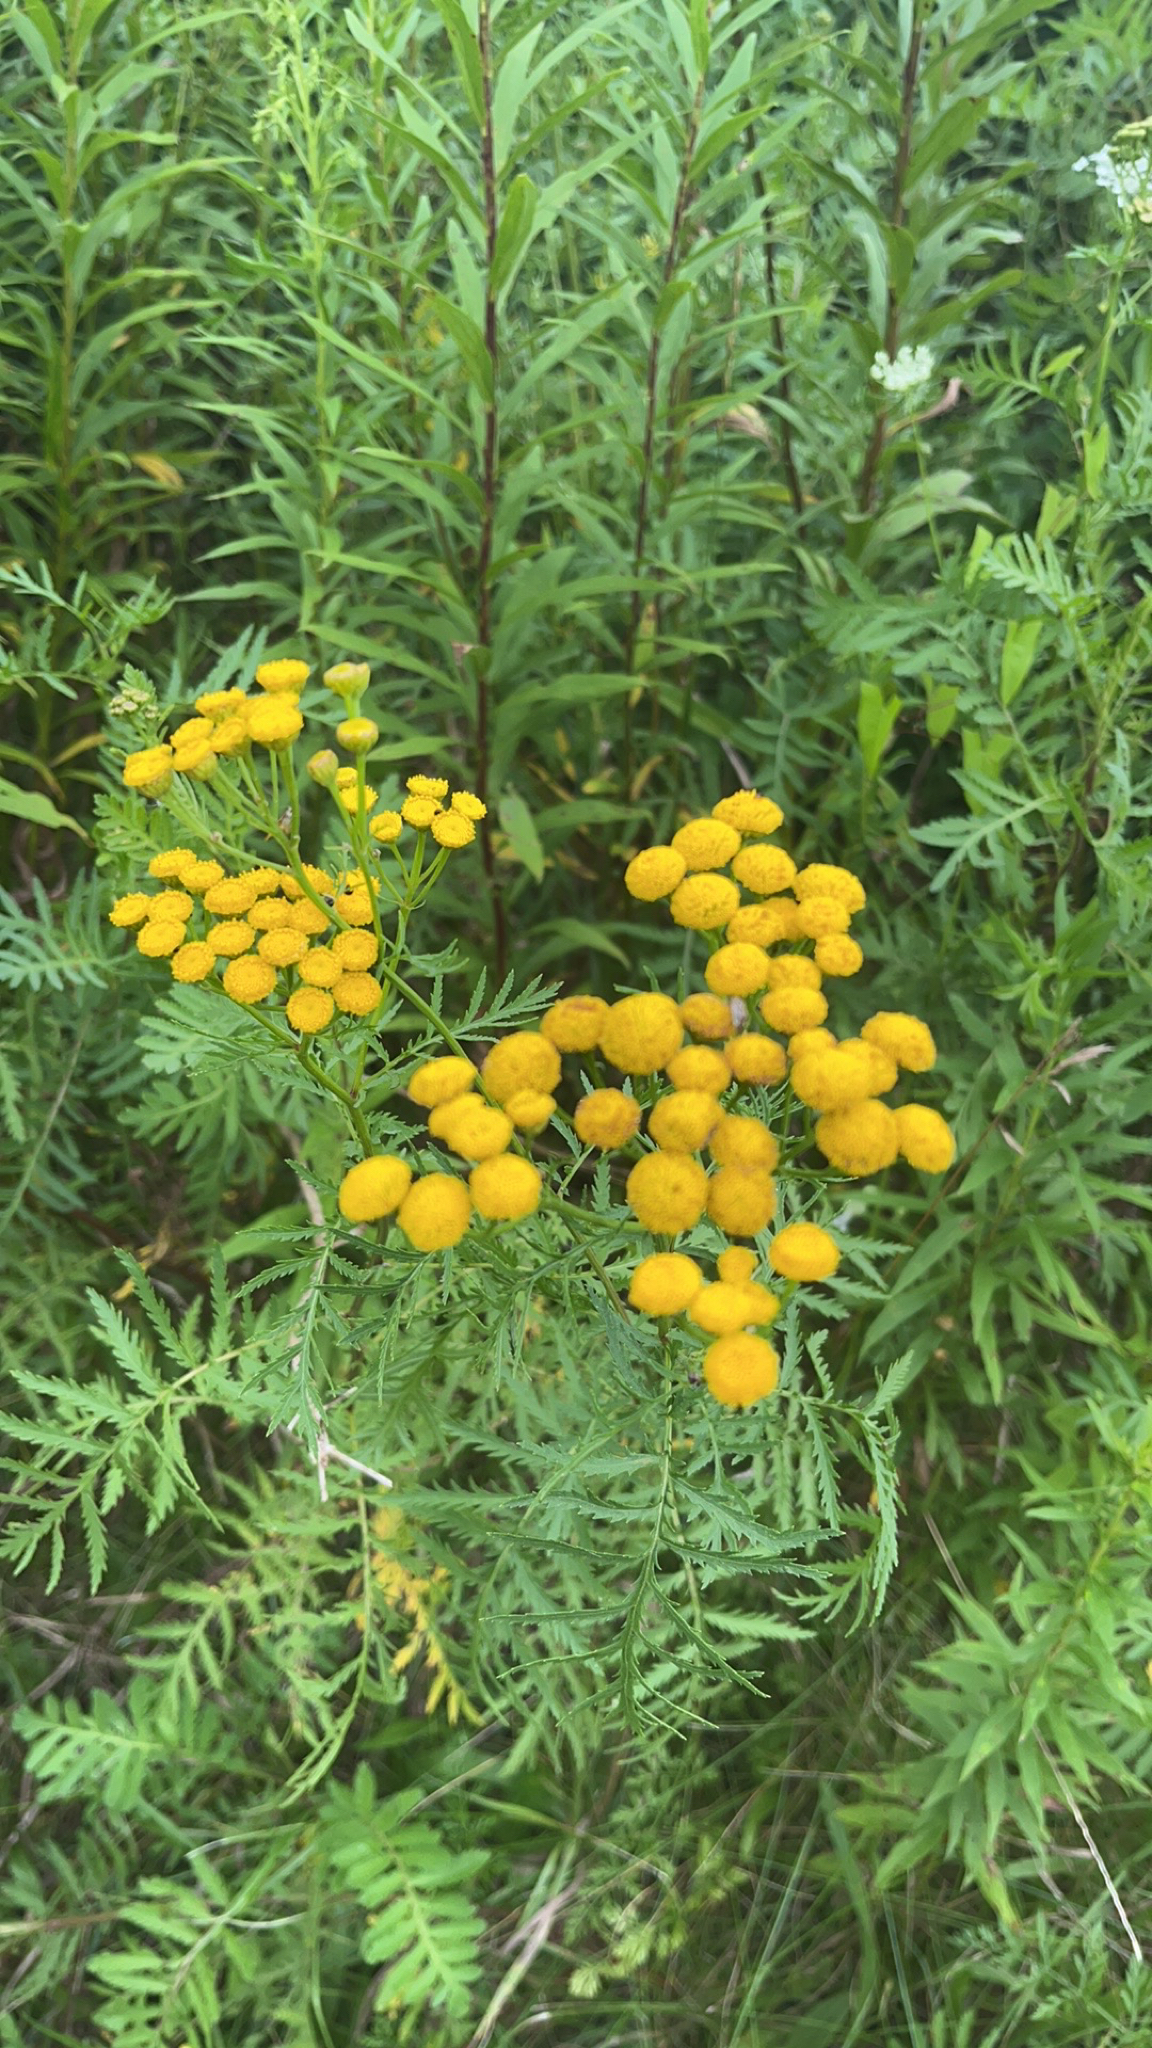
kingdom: Plantae
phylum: Tracheophyta
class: Magnoliopsida
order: Asterales
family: Asteraceae
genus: Tanacetum
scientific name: Tanacetum vulgare
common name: Common tansy
